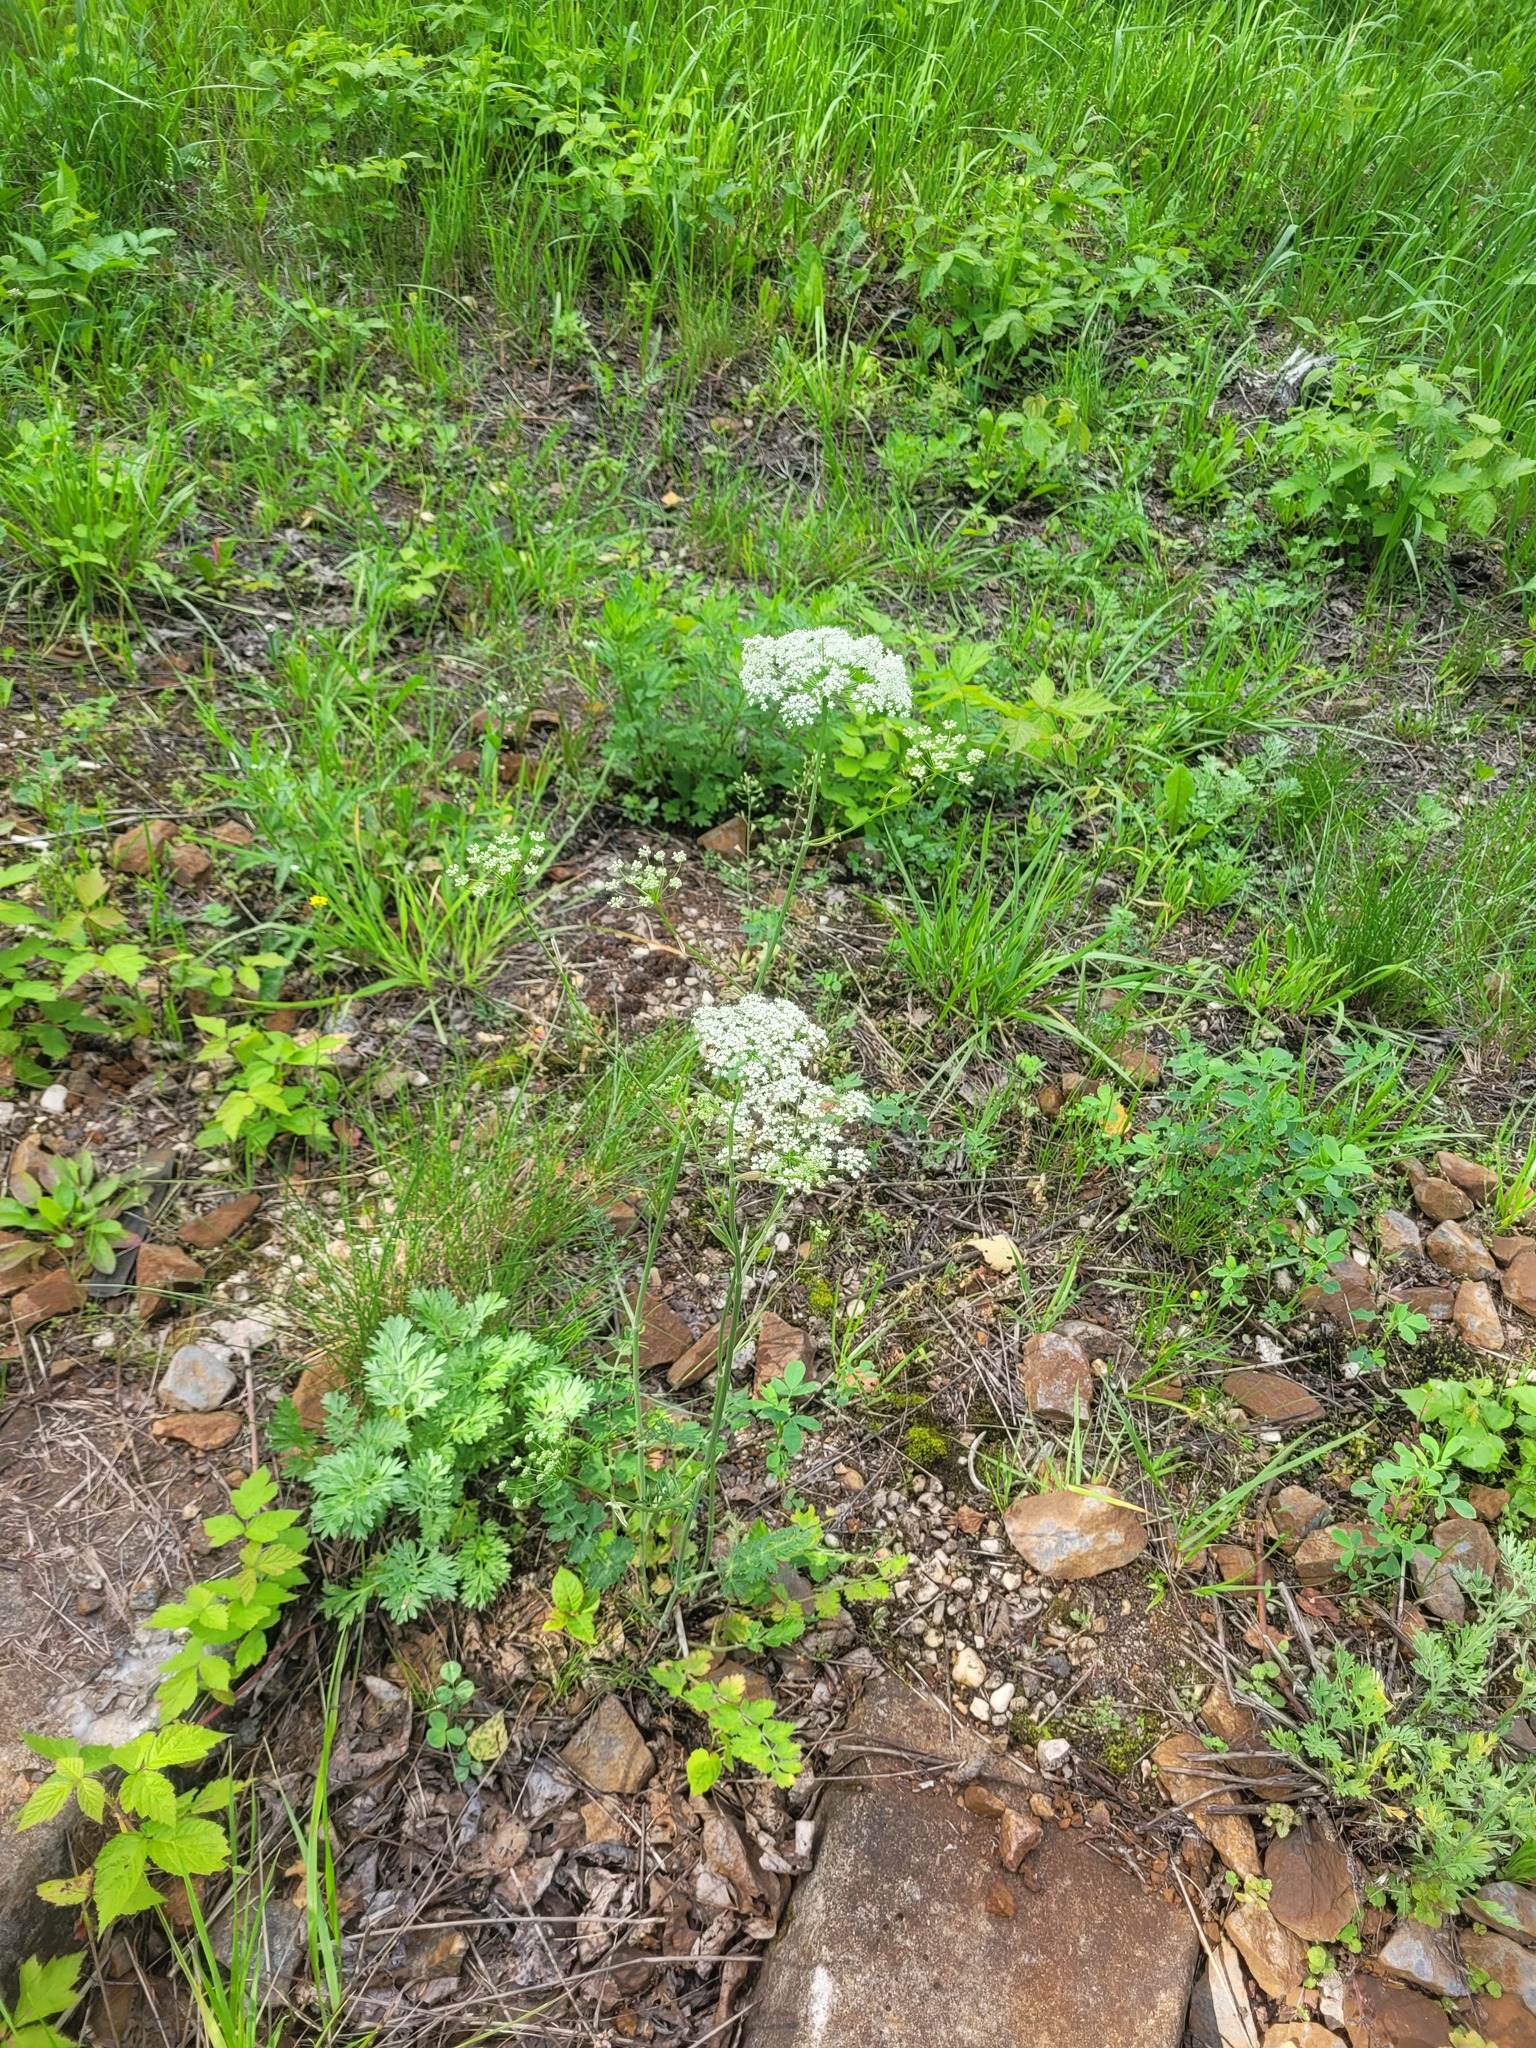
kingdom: Plantae
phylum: Tracheophyta
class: Magnoliopsida
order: Apiales
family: Apiaceae
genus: Pimpinella
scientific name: Pimpinella saxifraga
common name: Burnet-saxifrage
